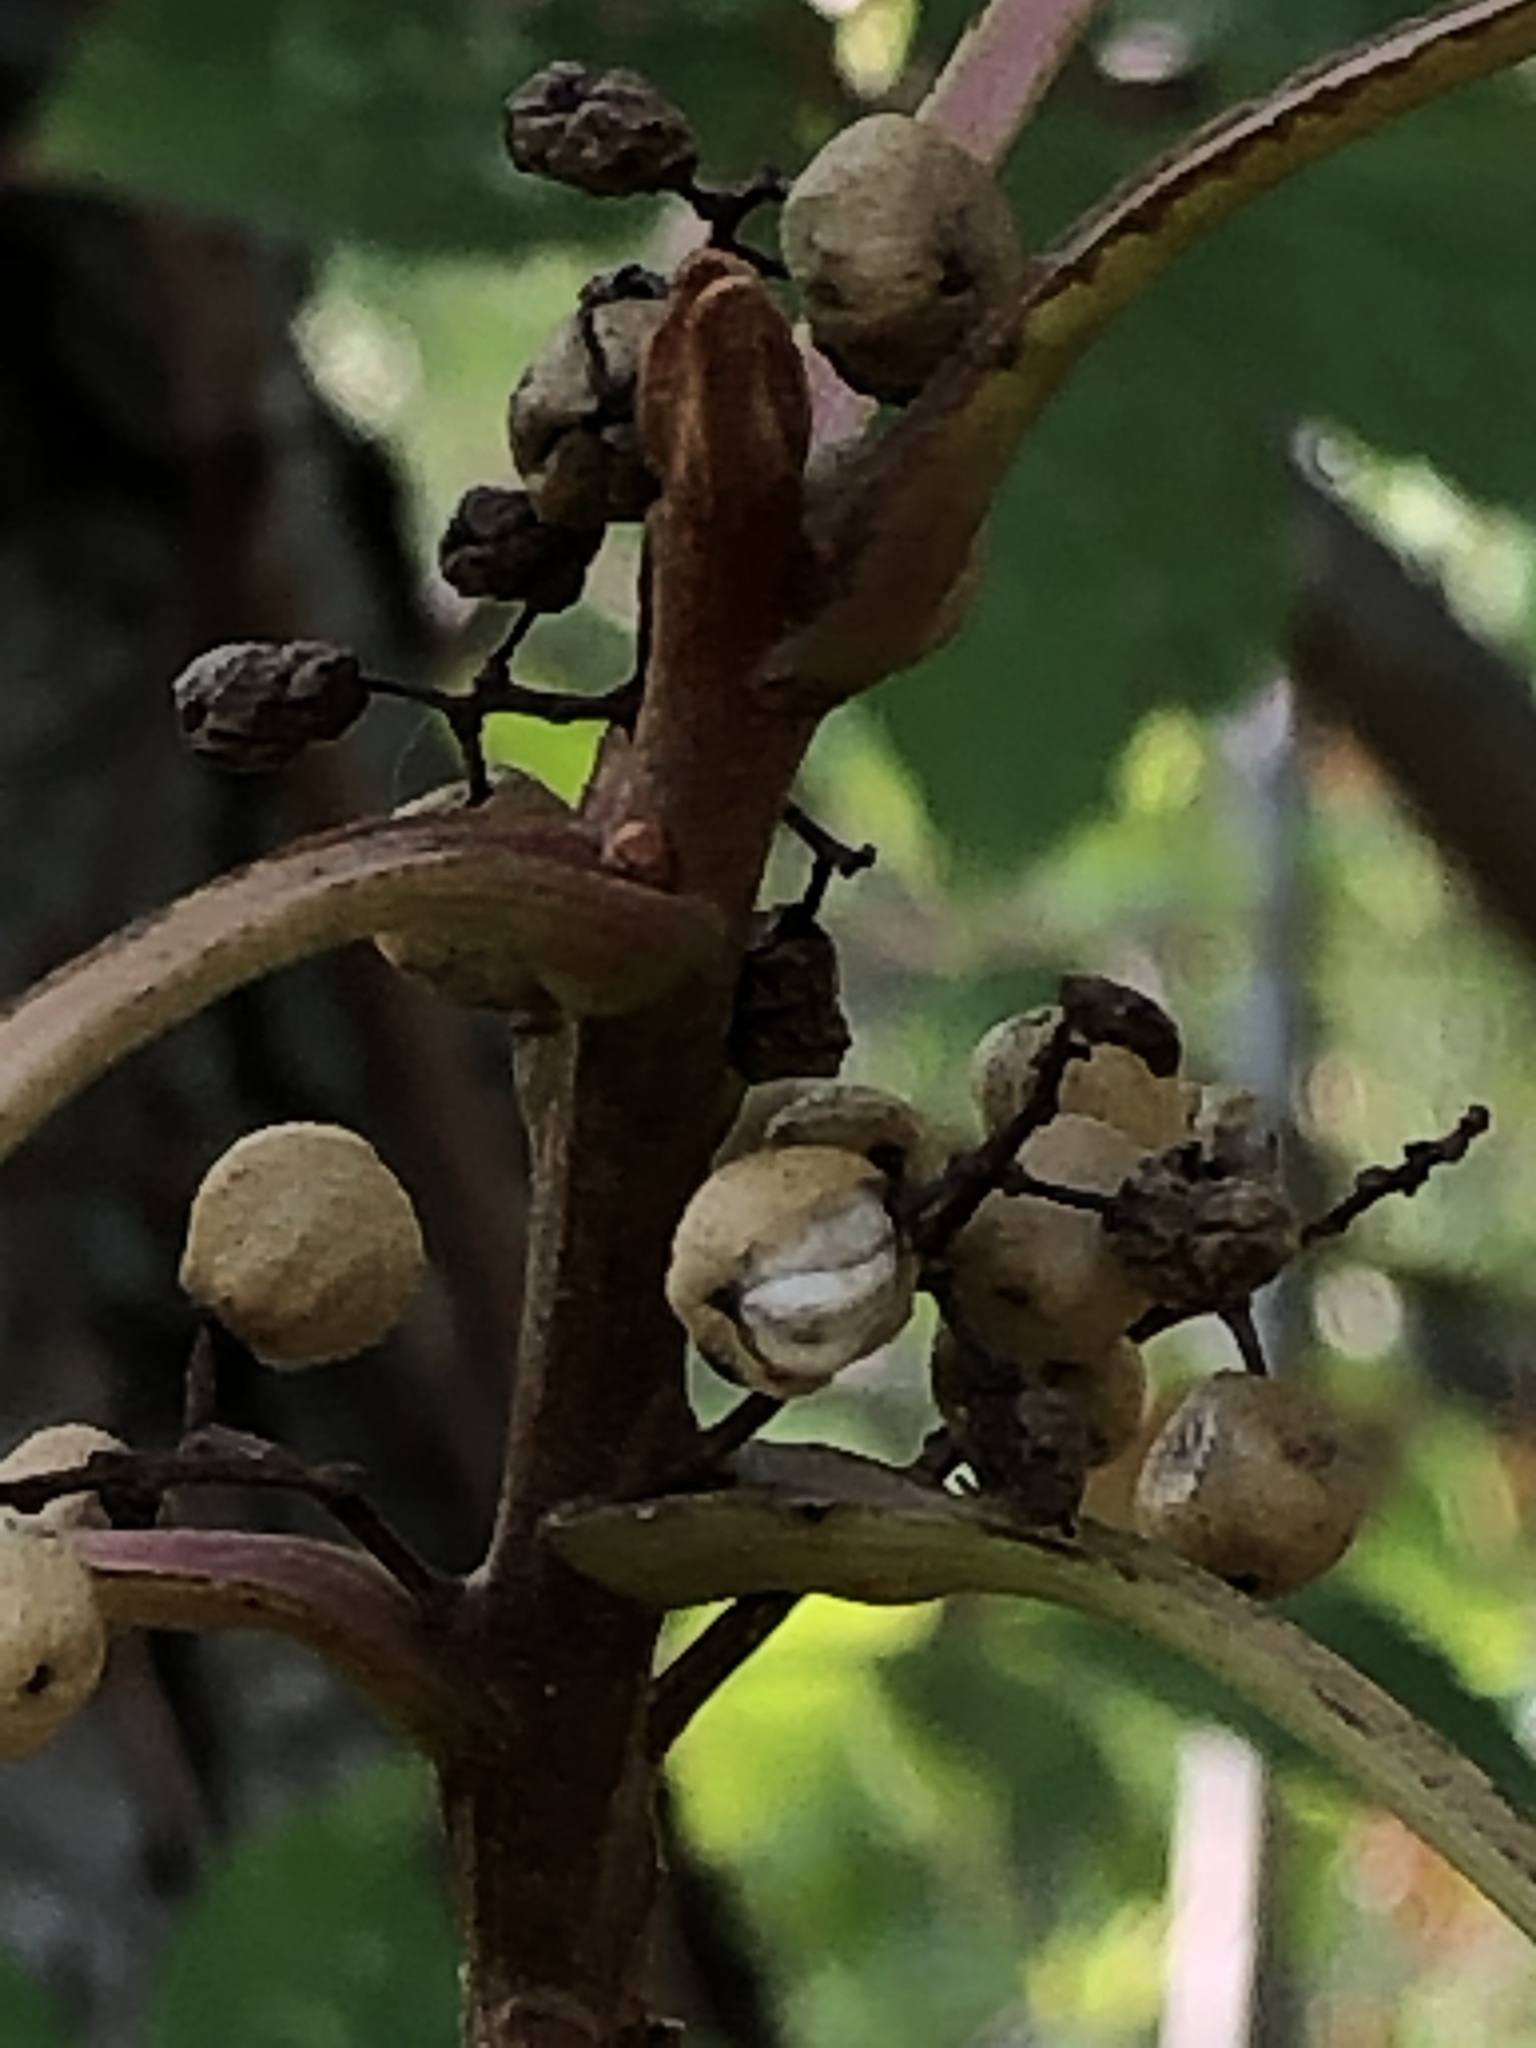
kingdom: Plantae
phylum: Tracheophyta
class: Magnoliopsida
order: Sapindales
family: Anacardiaceae
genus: Toxicodendron
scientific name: Toxicodendron radicans
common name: Poison ivy
